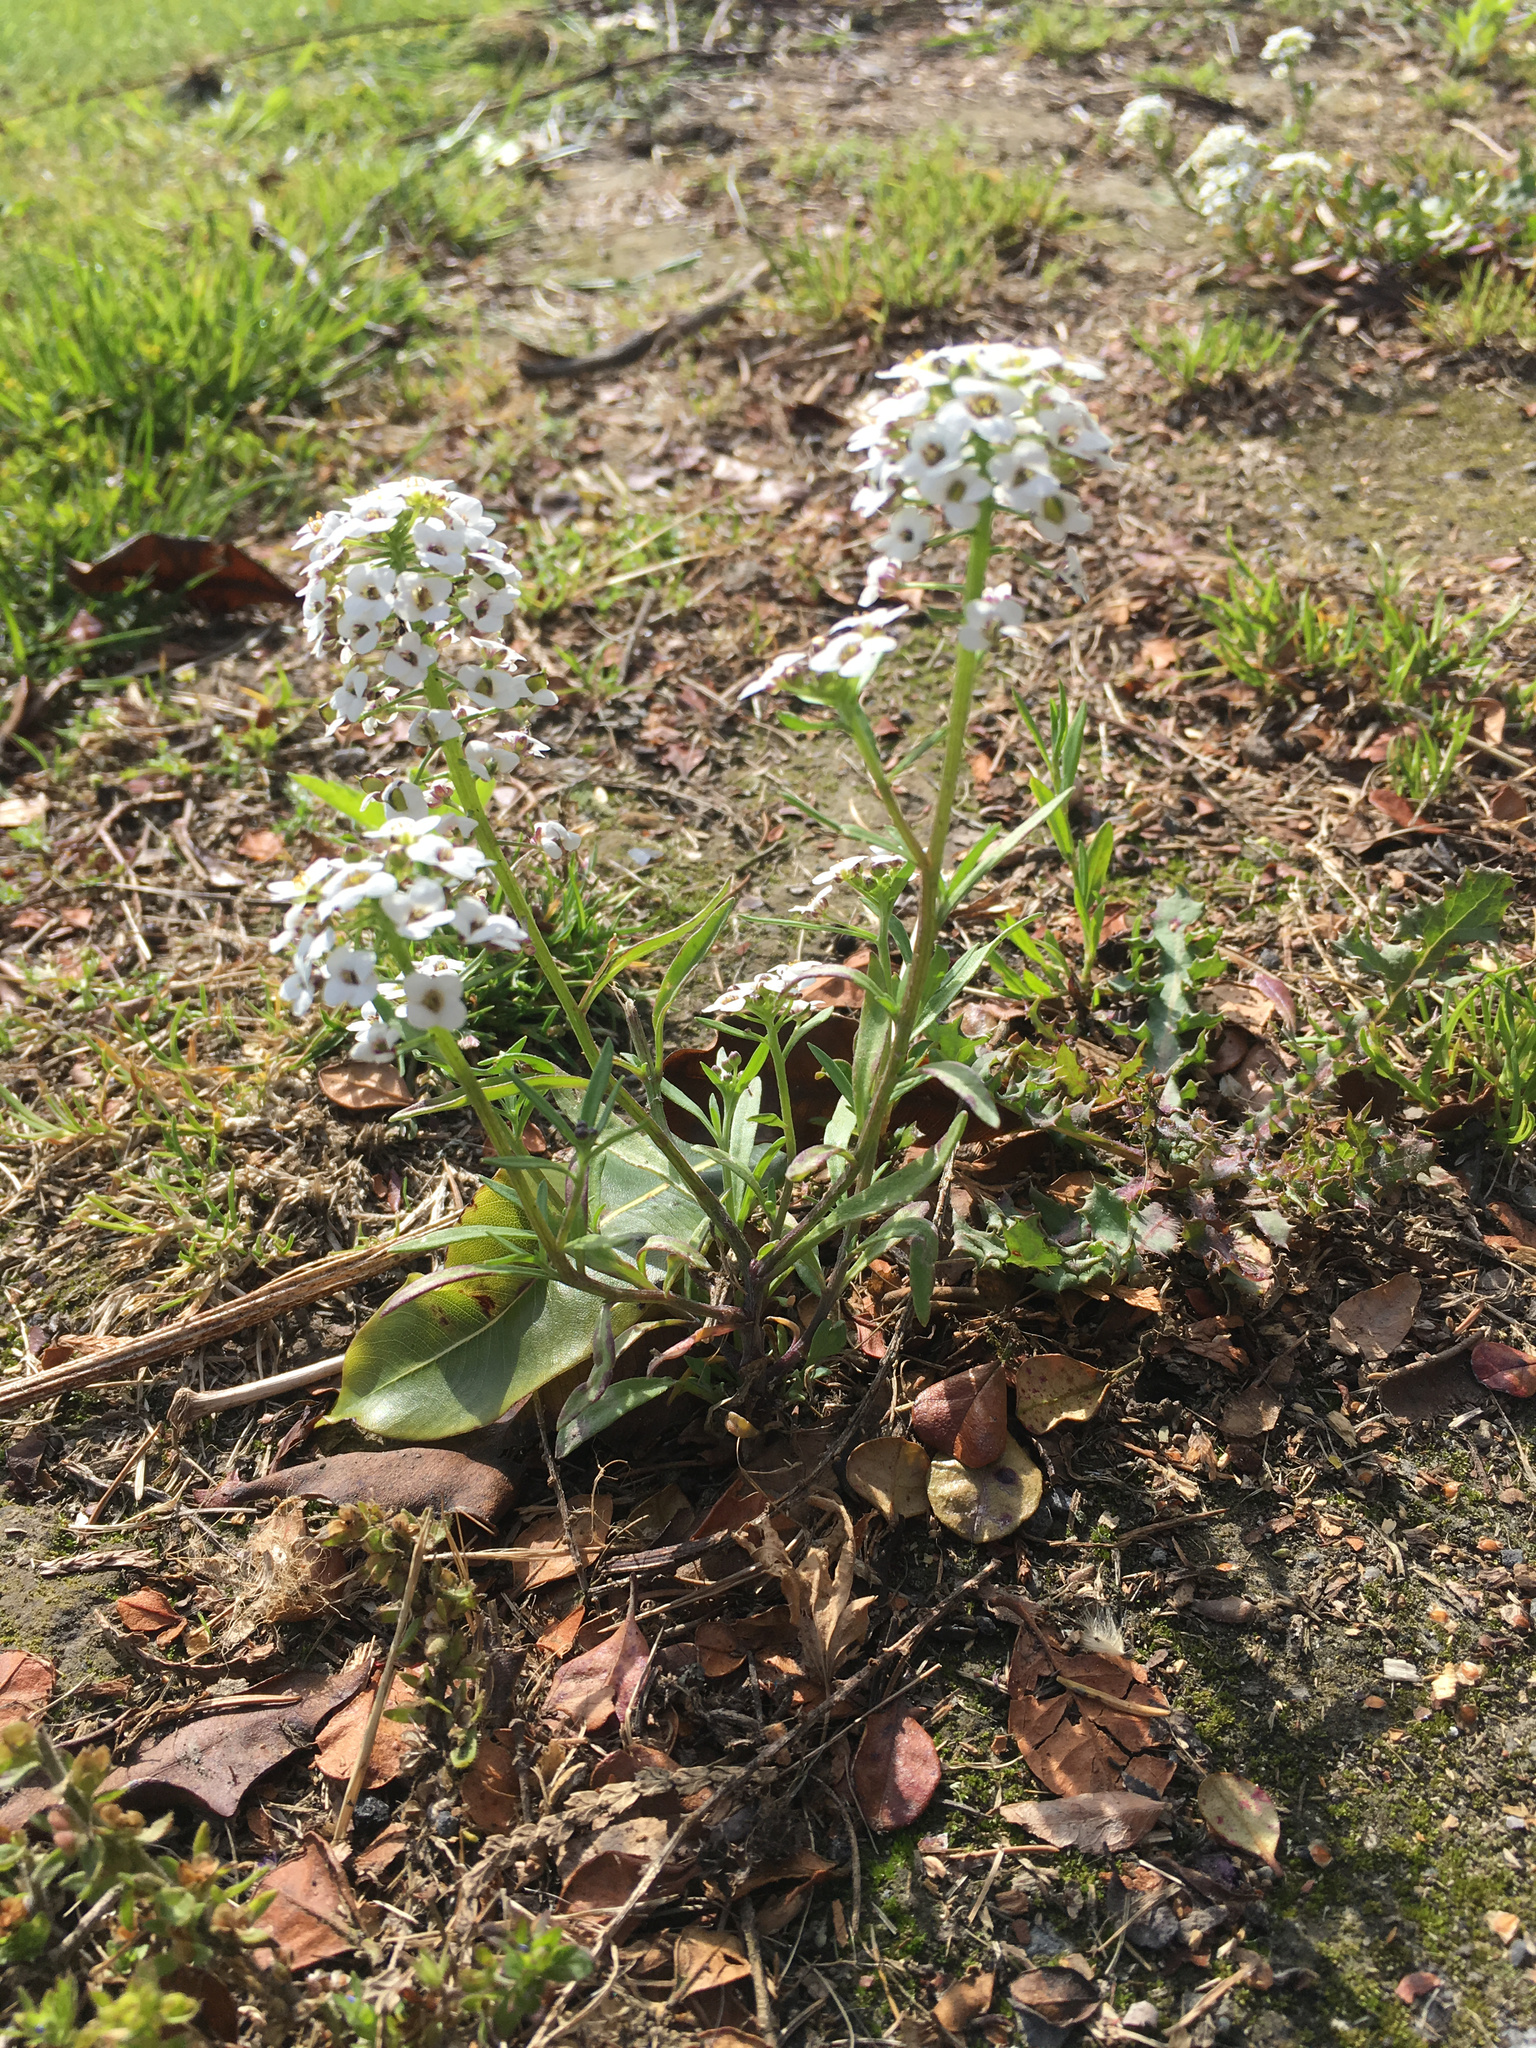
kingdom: Plantae
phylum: Tracheophyta
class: Magnoliopsida
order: Brassicales
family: Brassicaceae
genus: Lobularia
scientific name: Lobularia maritima
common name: Sweet alison
